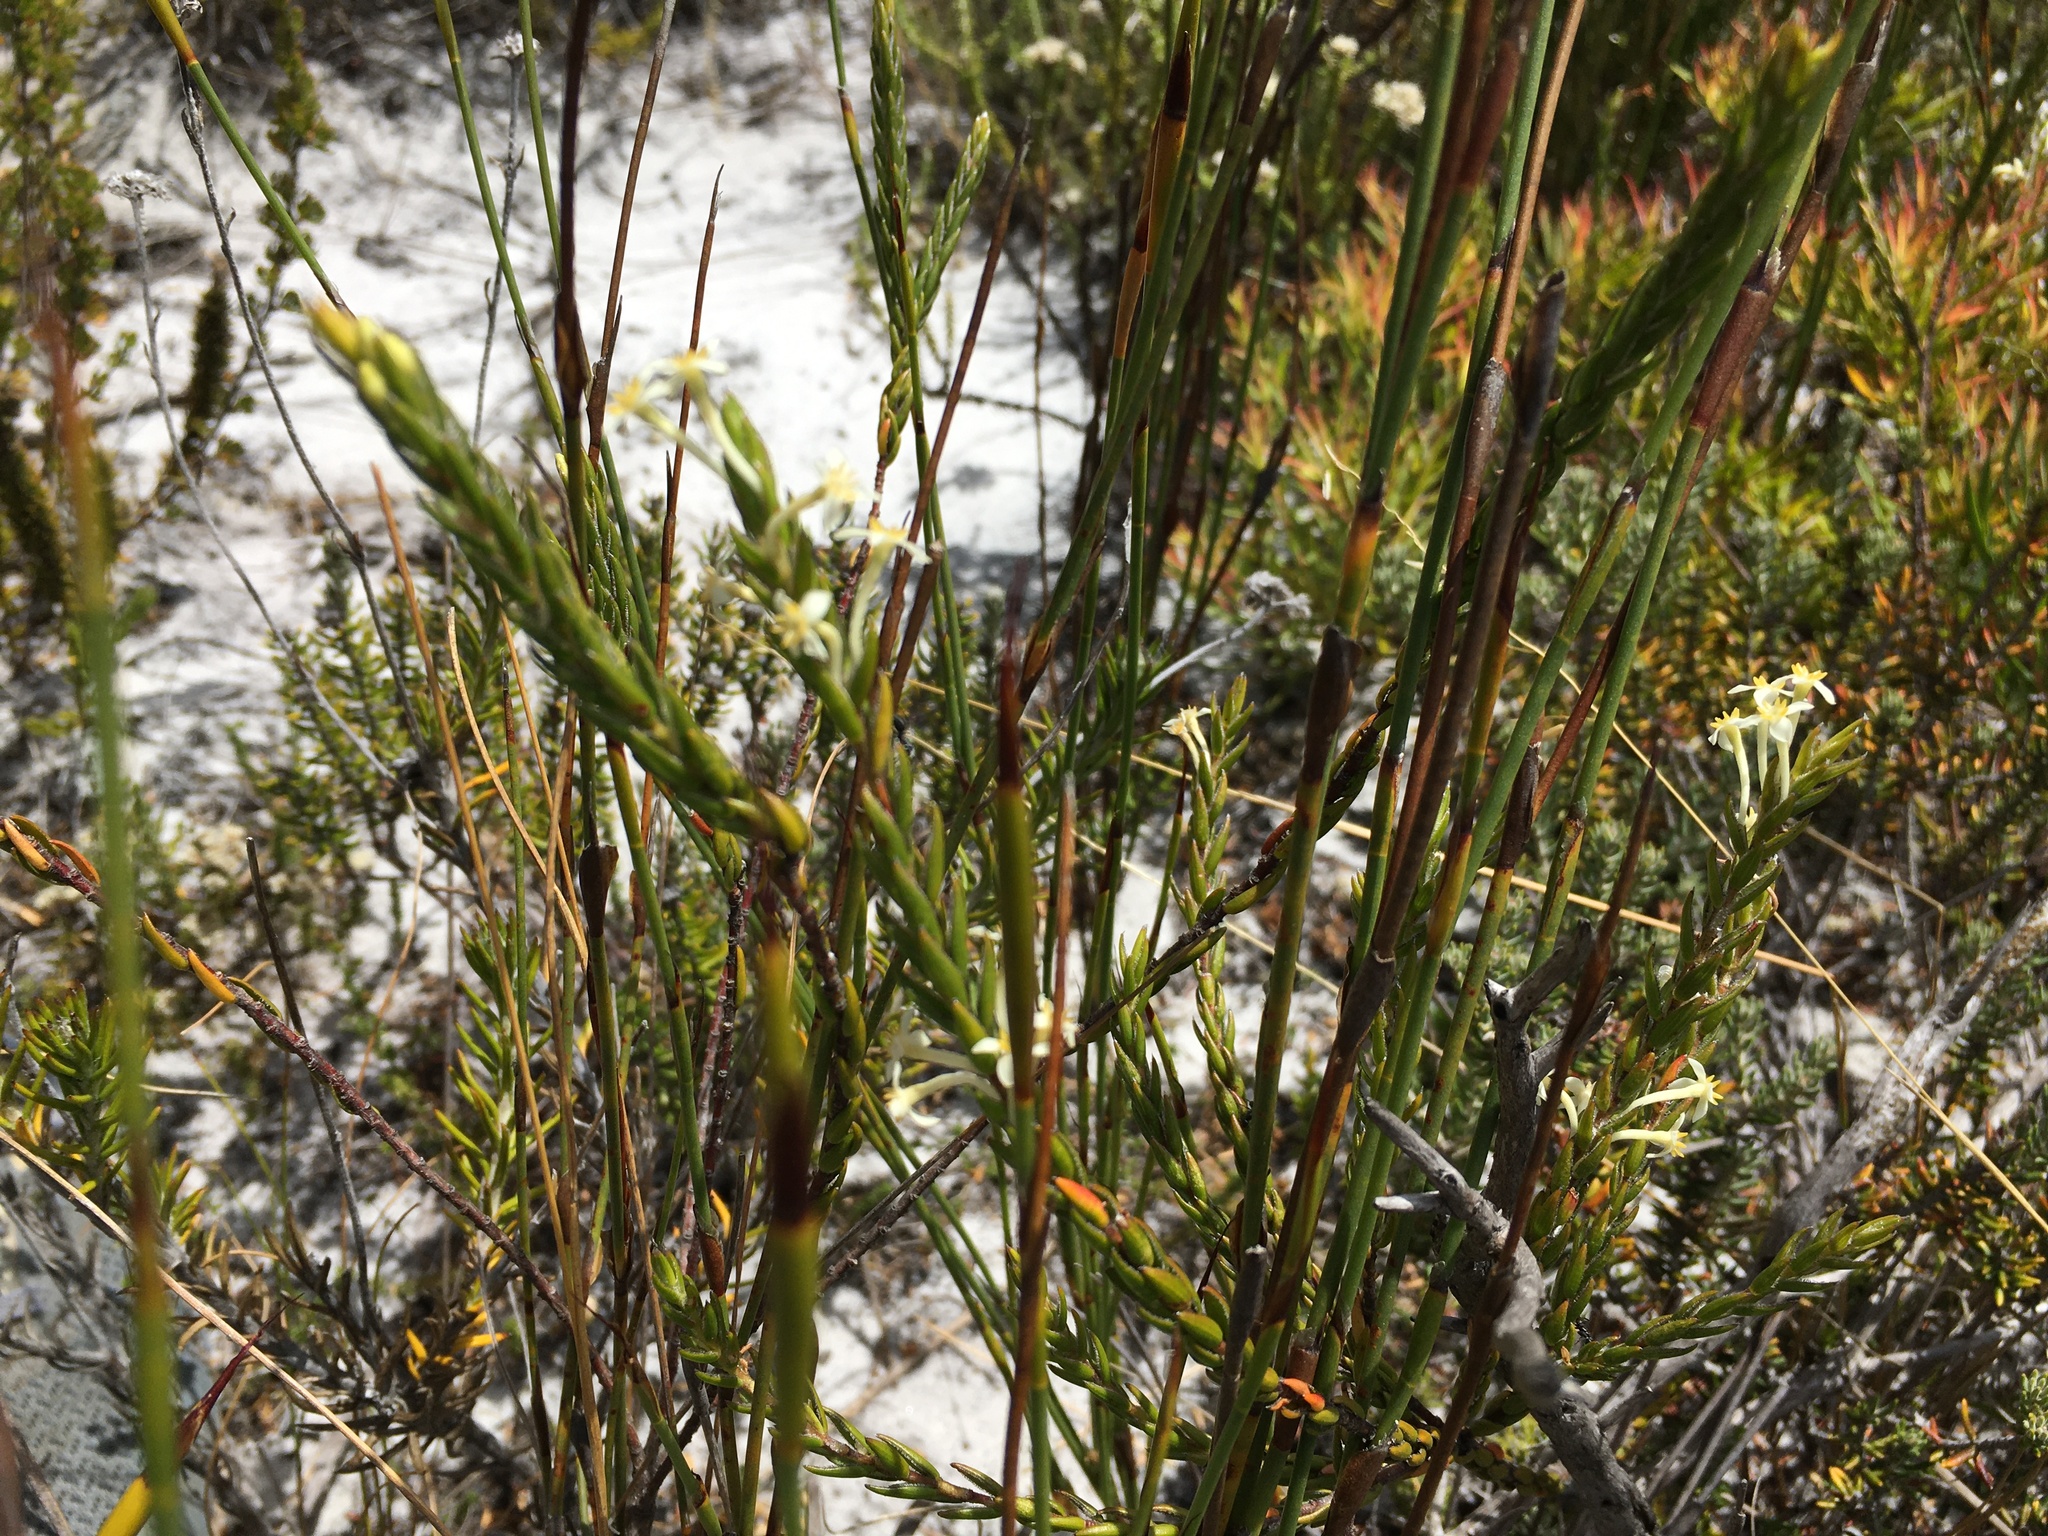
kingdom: Plantae
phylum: Tracheophyta
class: Magnoliopsida
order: Malvales
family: Thymelaeaceae
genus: Struthiola
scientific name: Struthiola ciliata
